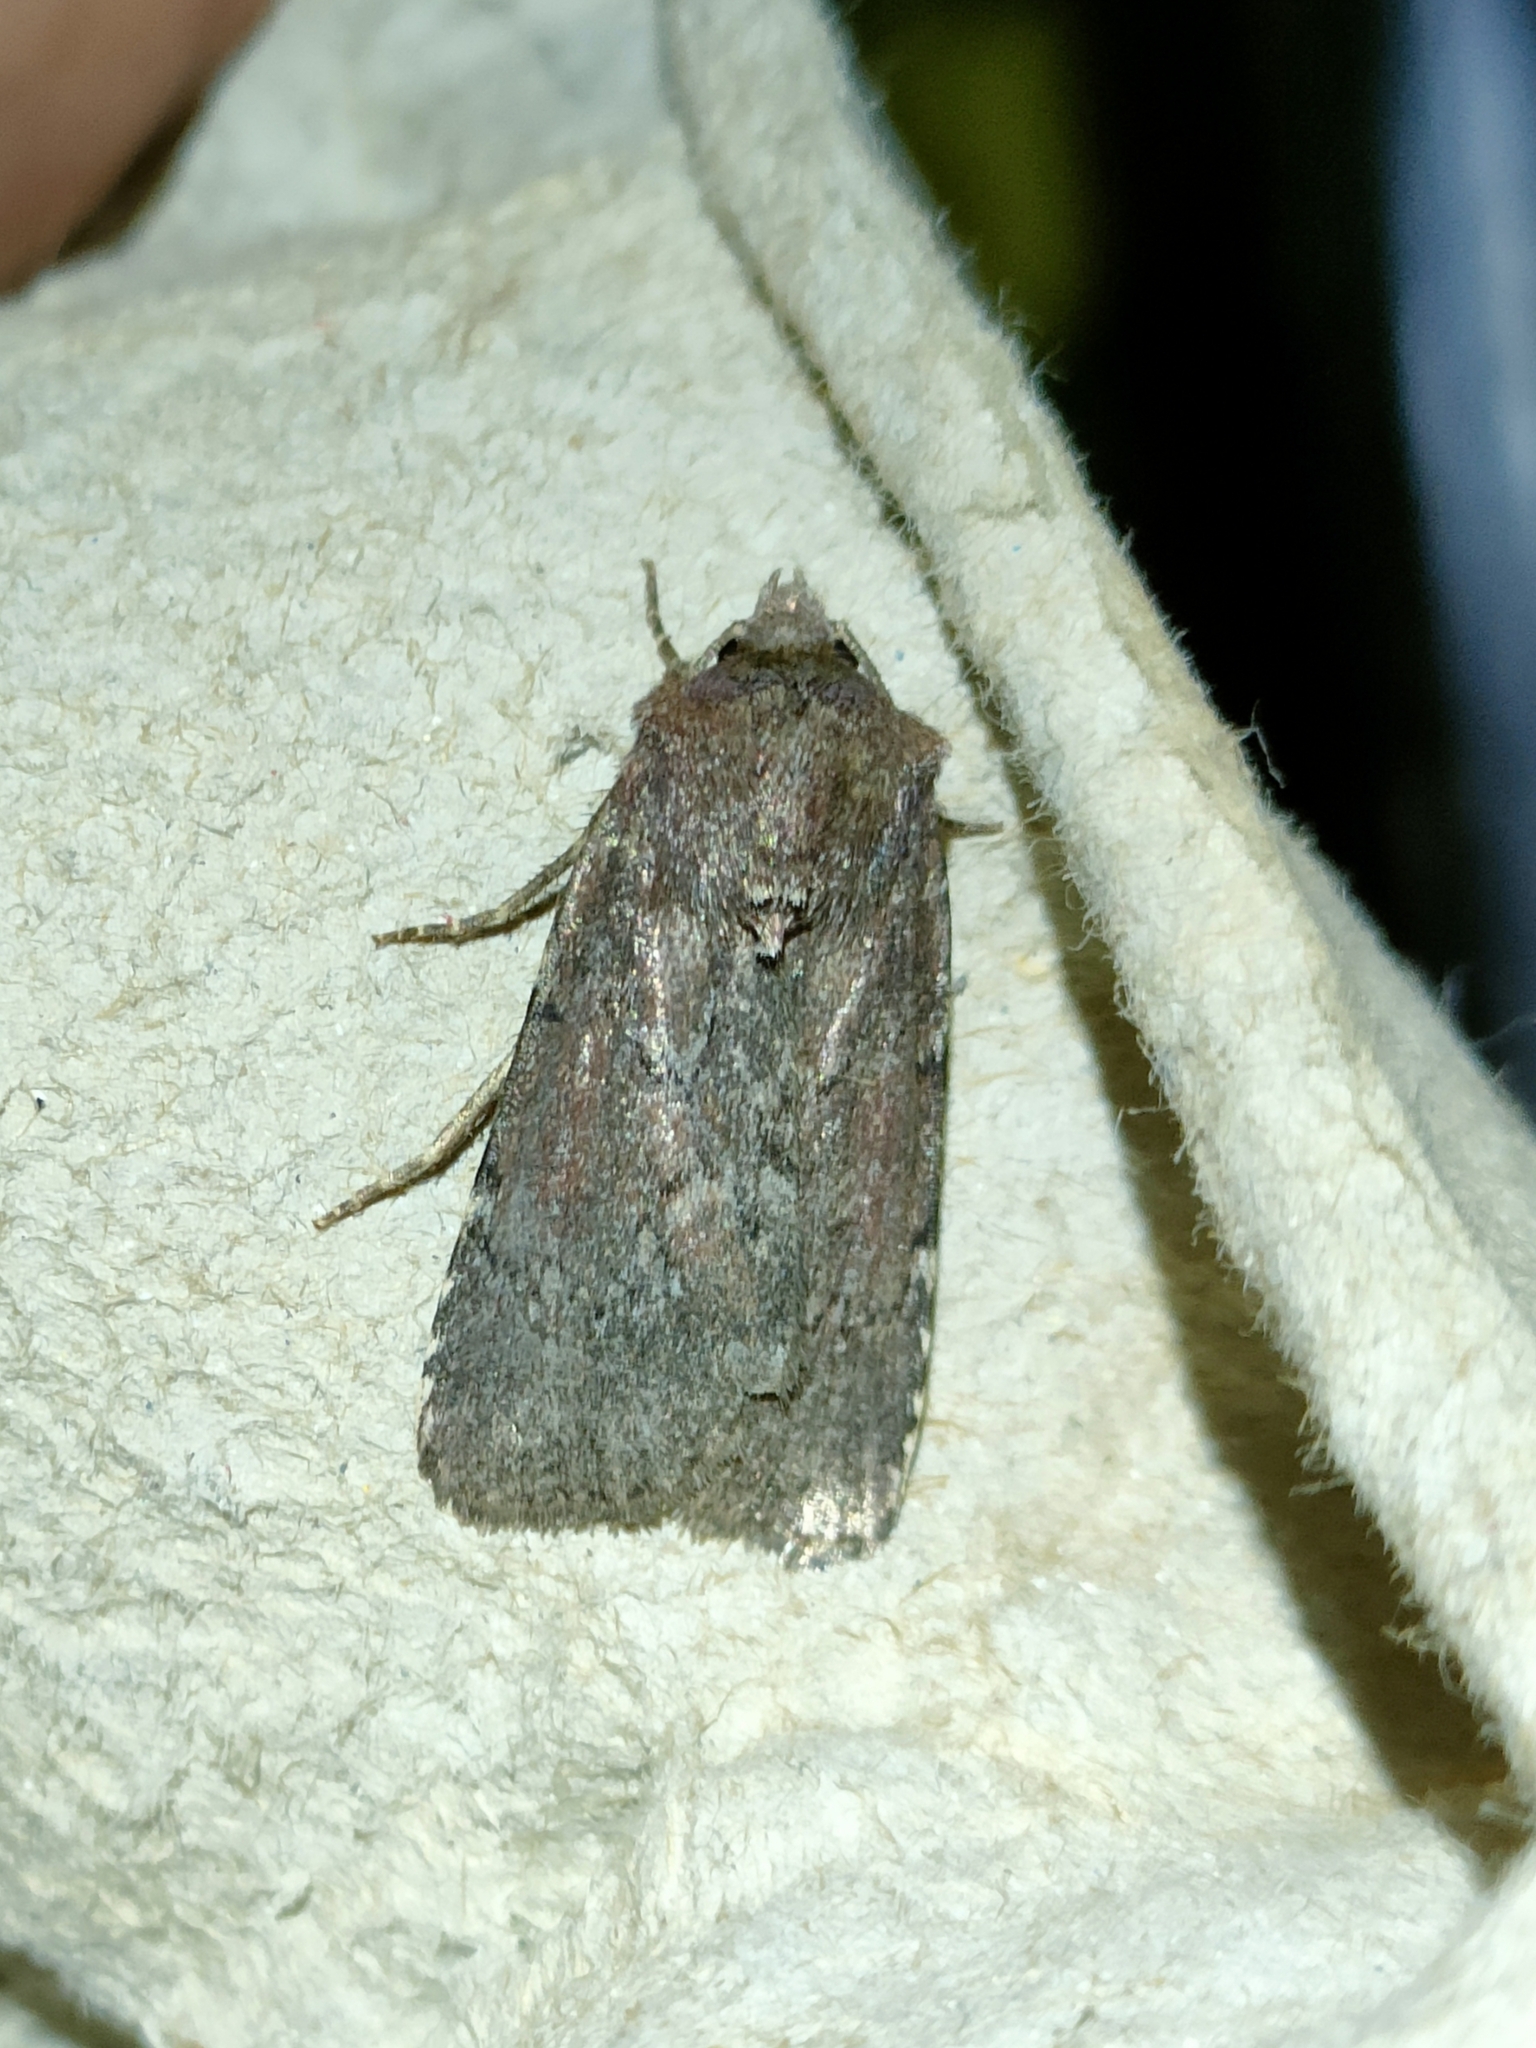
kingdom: Animalia
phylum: Arthropoda
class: Insecta
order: Lepidoptera
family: Noctuidae
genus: Lycophotia
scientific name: Lycophotia erythrina
